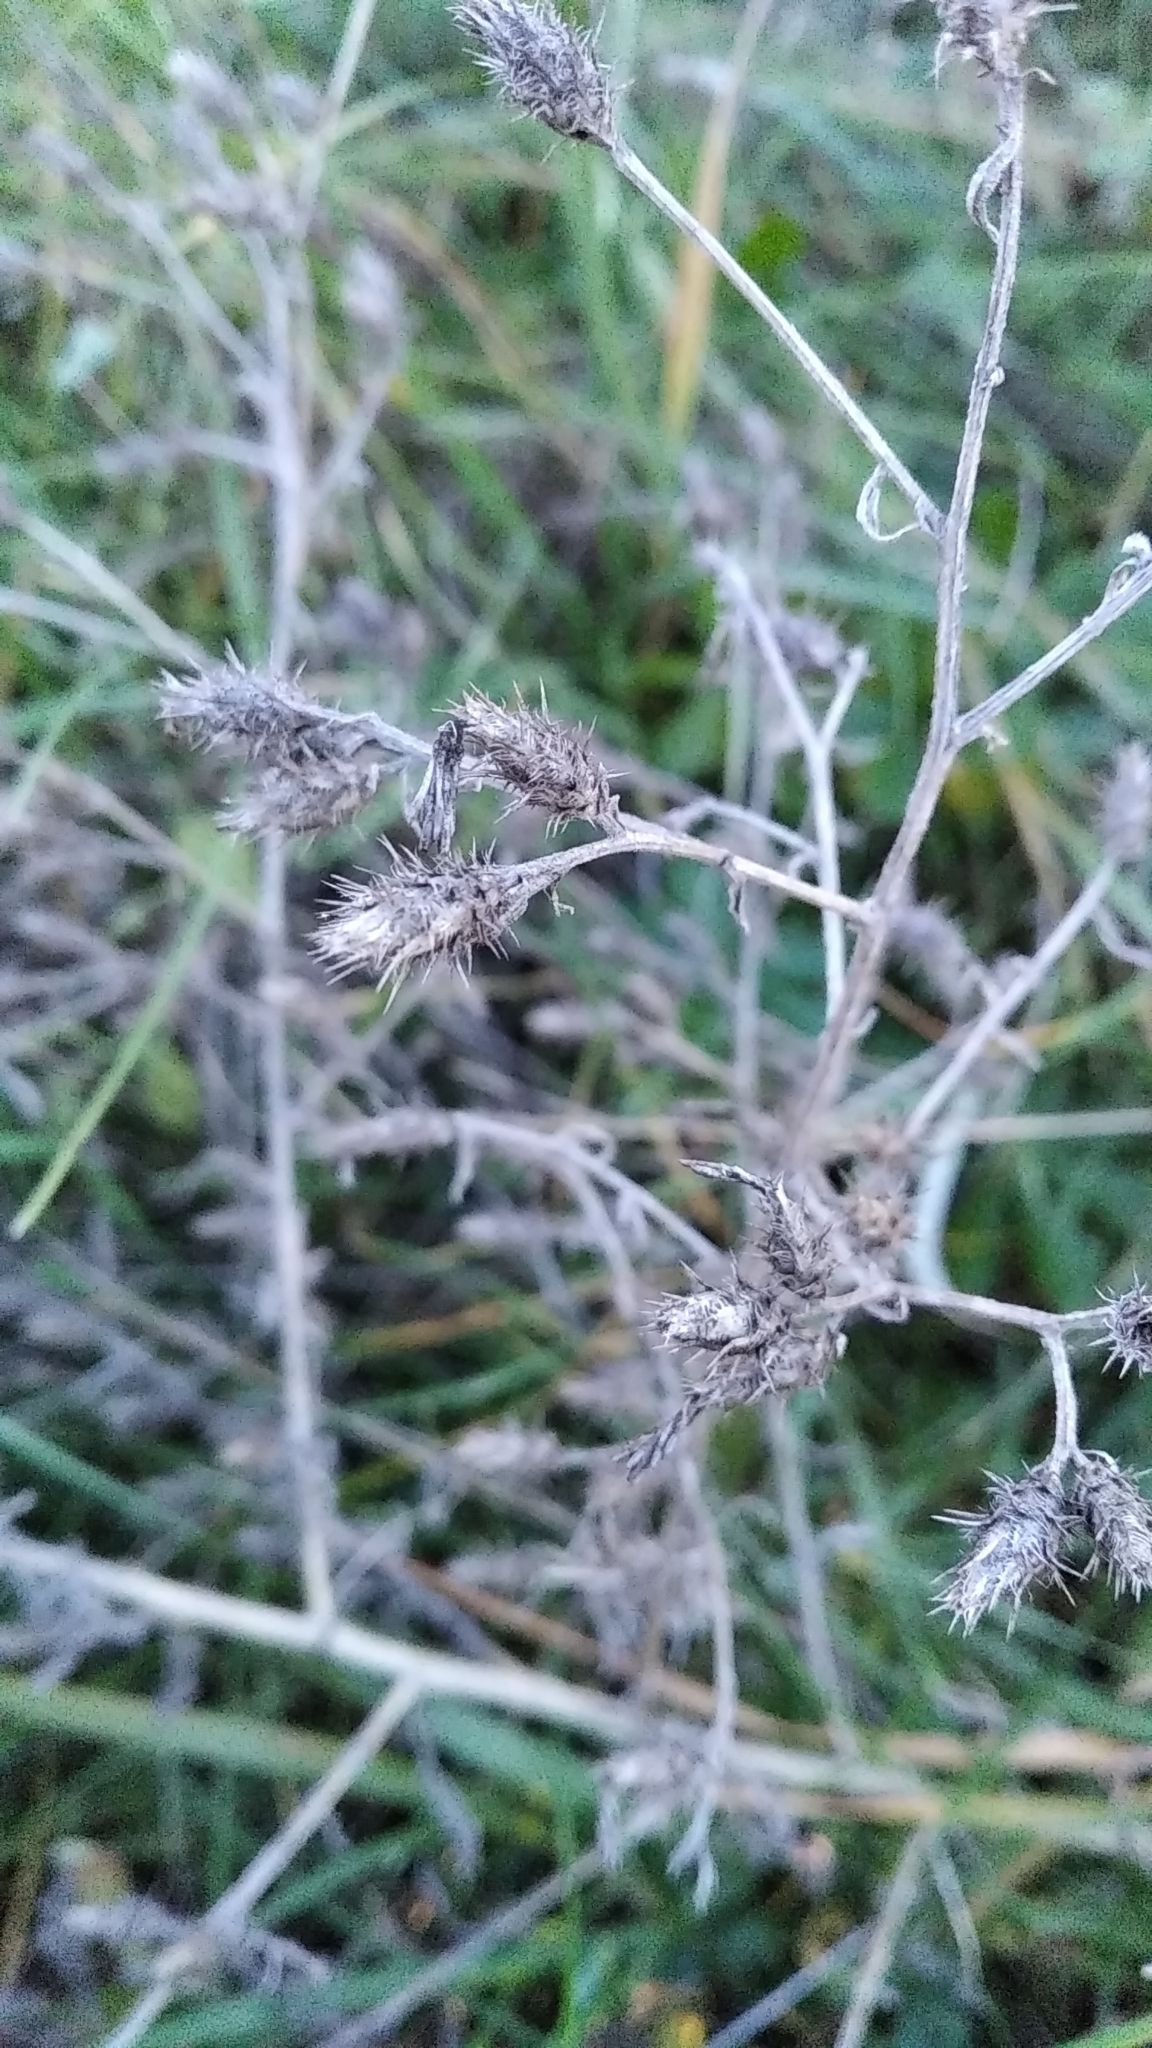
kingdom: Plantae
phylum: Tracheophyta
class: Magnoliopsida
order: Asterales
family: Asteraceae
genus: Centaurea
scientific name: Centaurea diffusa
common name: Diffuse knapweed
